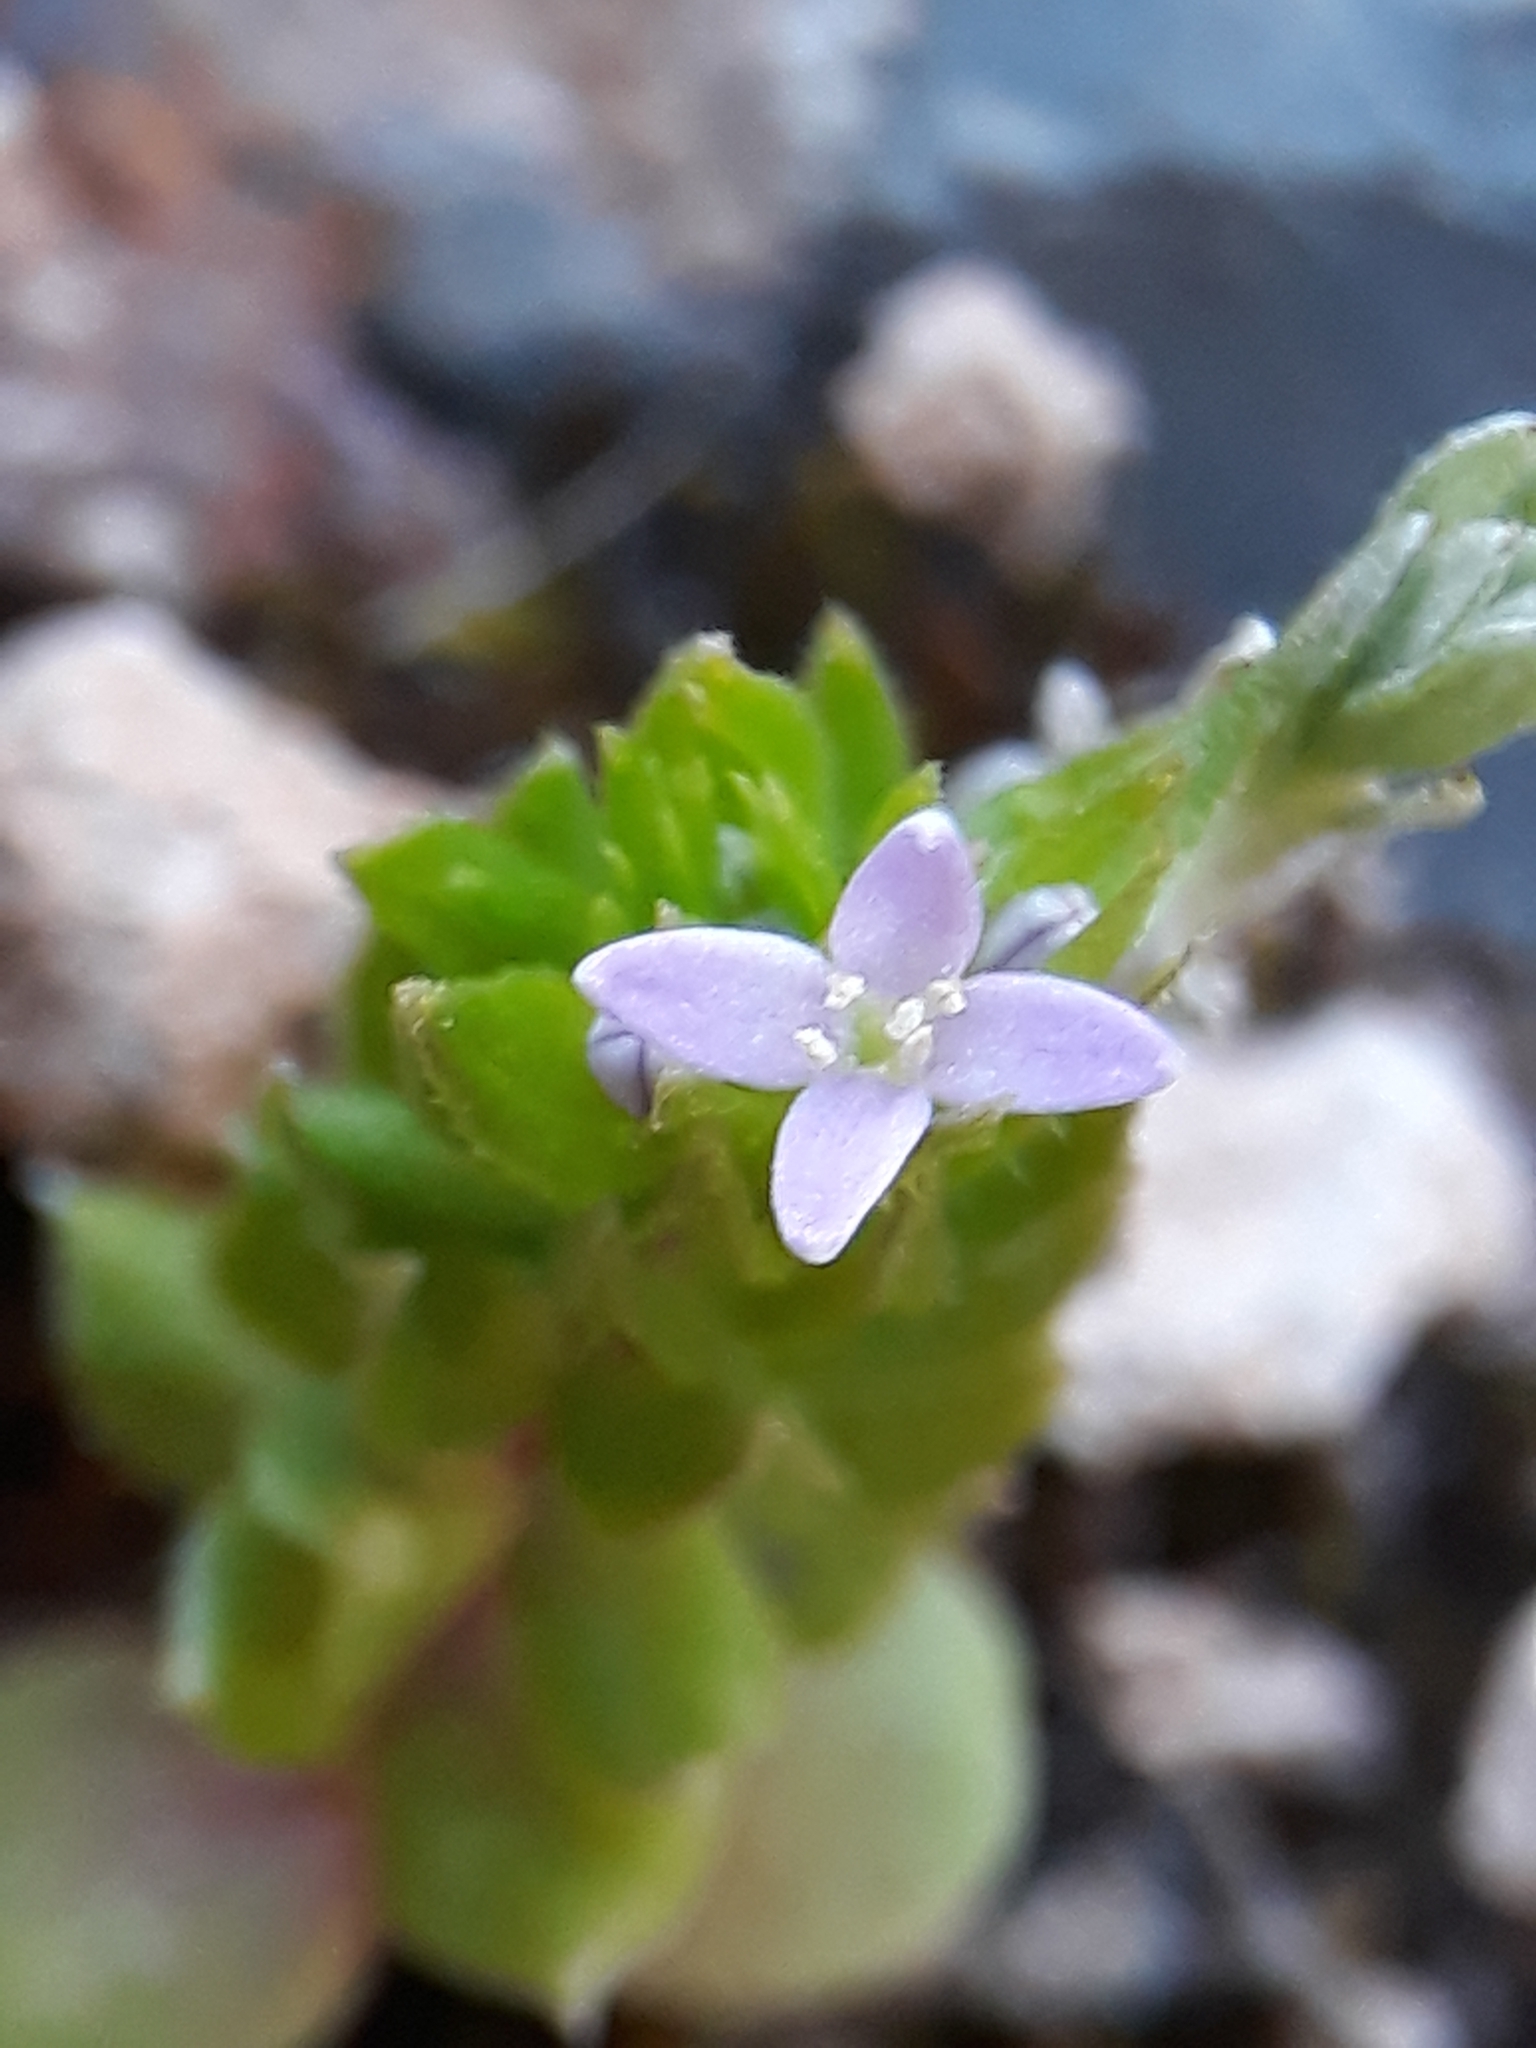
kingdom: Plantae
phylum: Tracheophyta
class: Magnoliopsida
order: Gentianales
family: Rubiaceae
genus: Sherardia
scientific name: Sherardia arvensis
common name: Field madder
